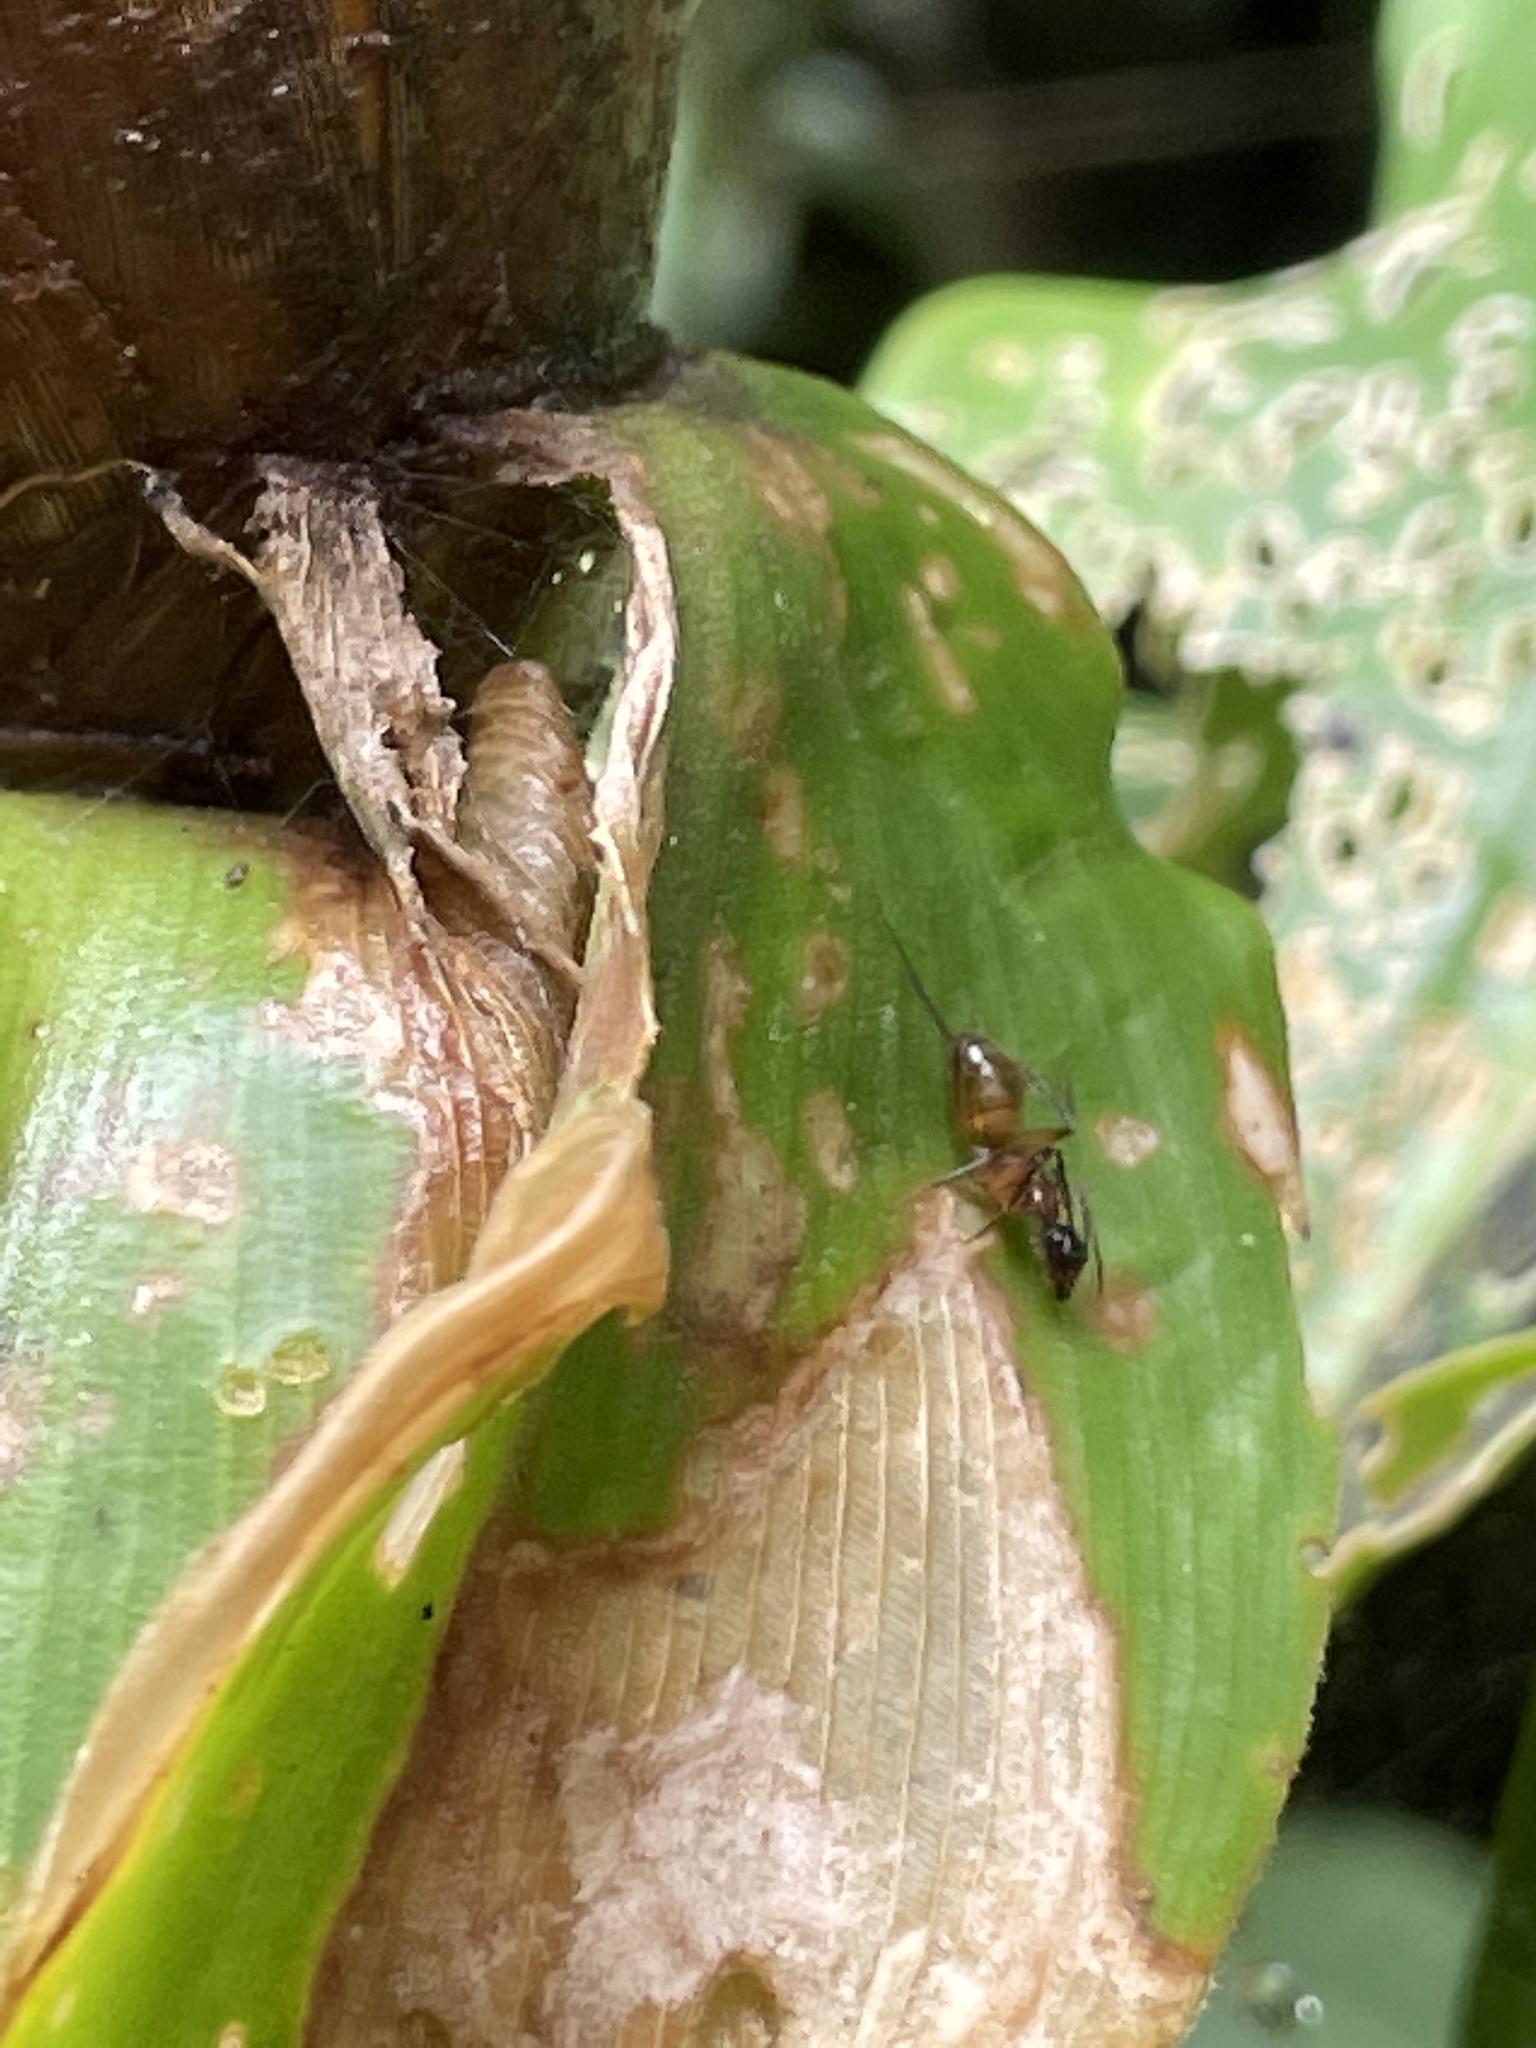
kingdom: Animalia
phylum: Arthropoda
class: Insecta
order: Hymenoptera
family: Formicidae
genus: Camponotus
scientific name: Camponotus atriceps
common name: Florida carpenter ant
